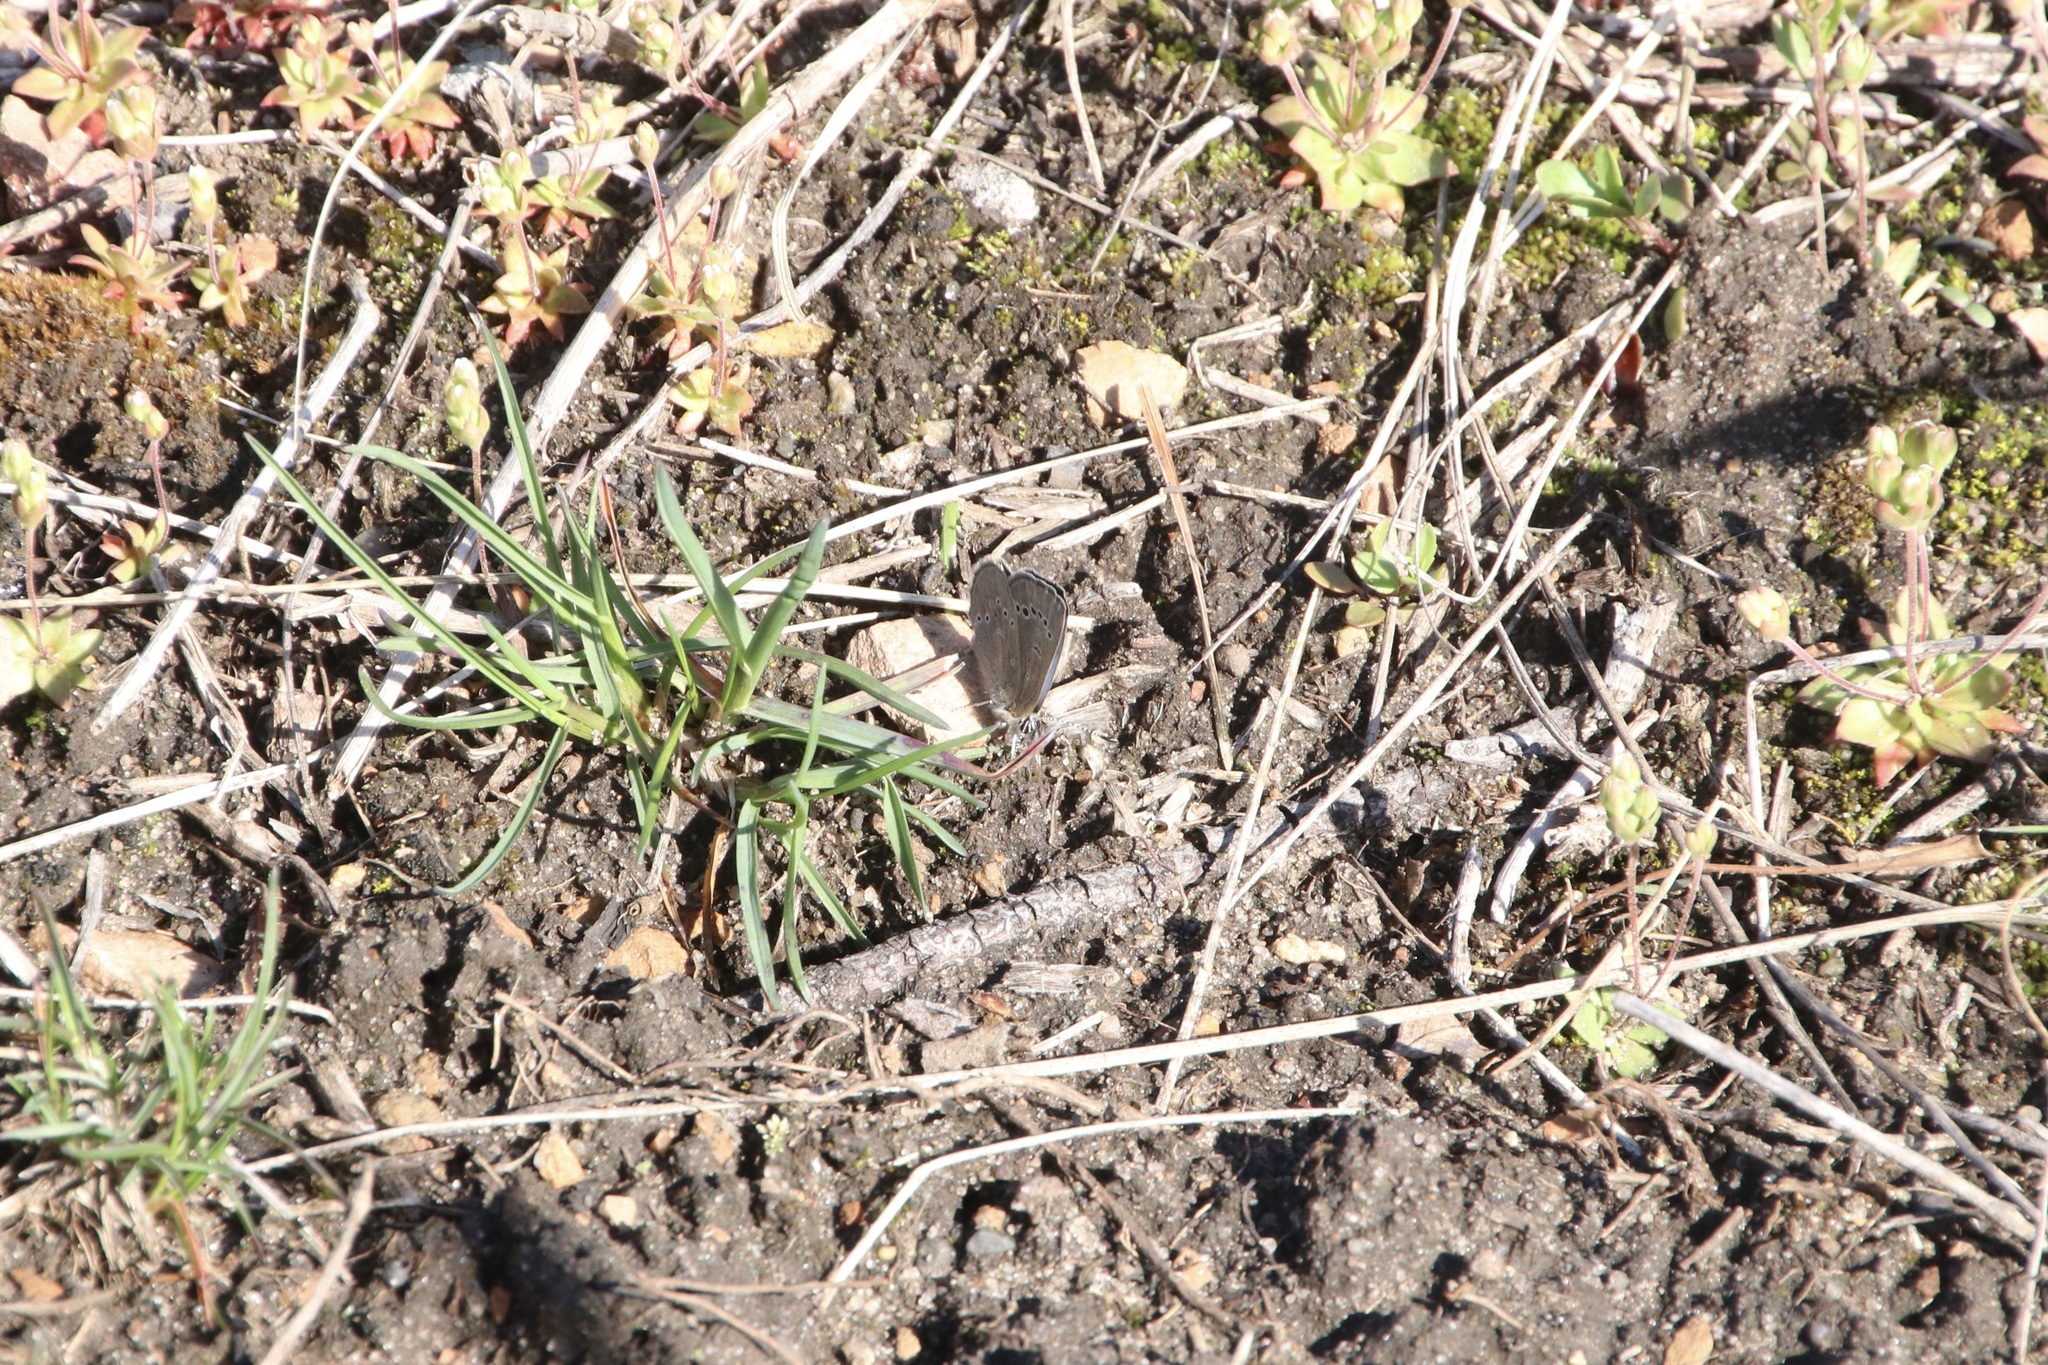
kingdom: Animalia
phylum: Arthropoda
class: Insecta
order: Lepidoptera
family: Lycaenidae
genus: Glaucopsyche
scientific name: Glaucopsyche lygdamus
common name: Silvery blue
